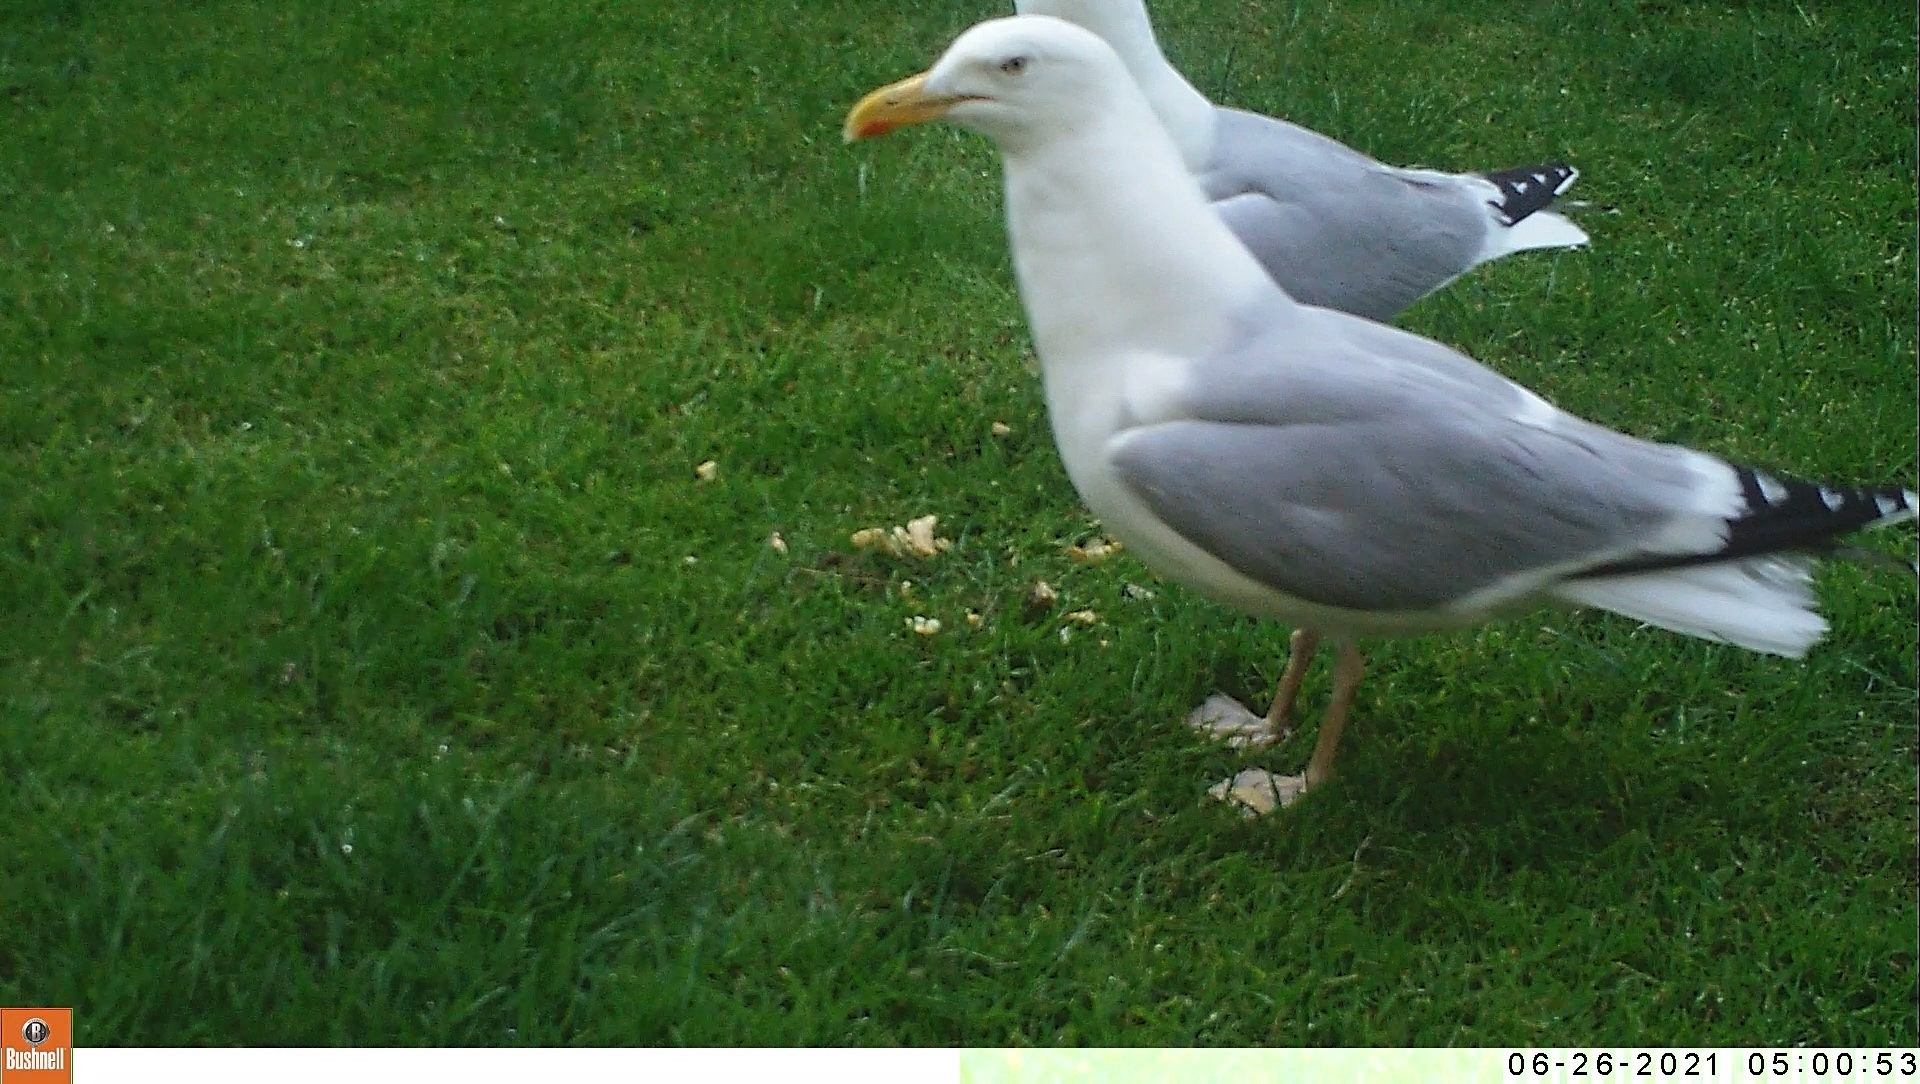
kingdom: Animalia
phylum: Chordata
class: Aves
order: Charadriiformes
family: Laridae
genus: Larus
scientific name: Larus argentatus
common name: Herring gull
